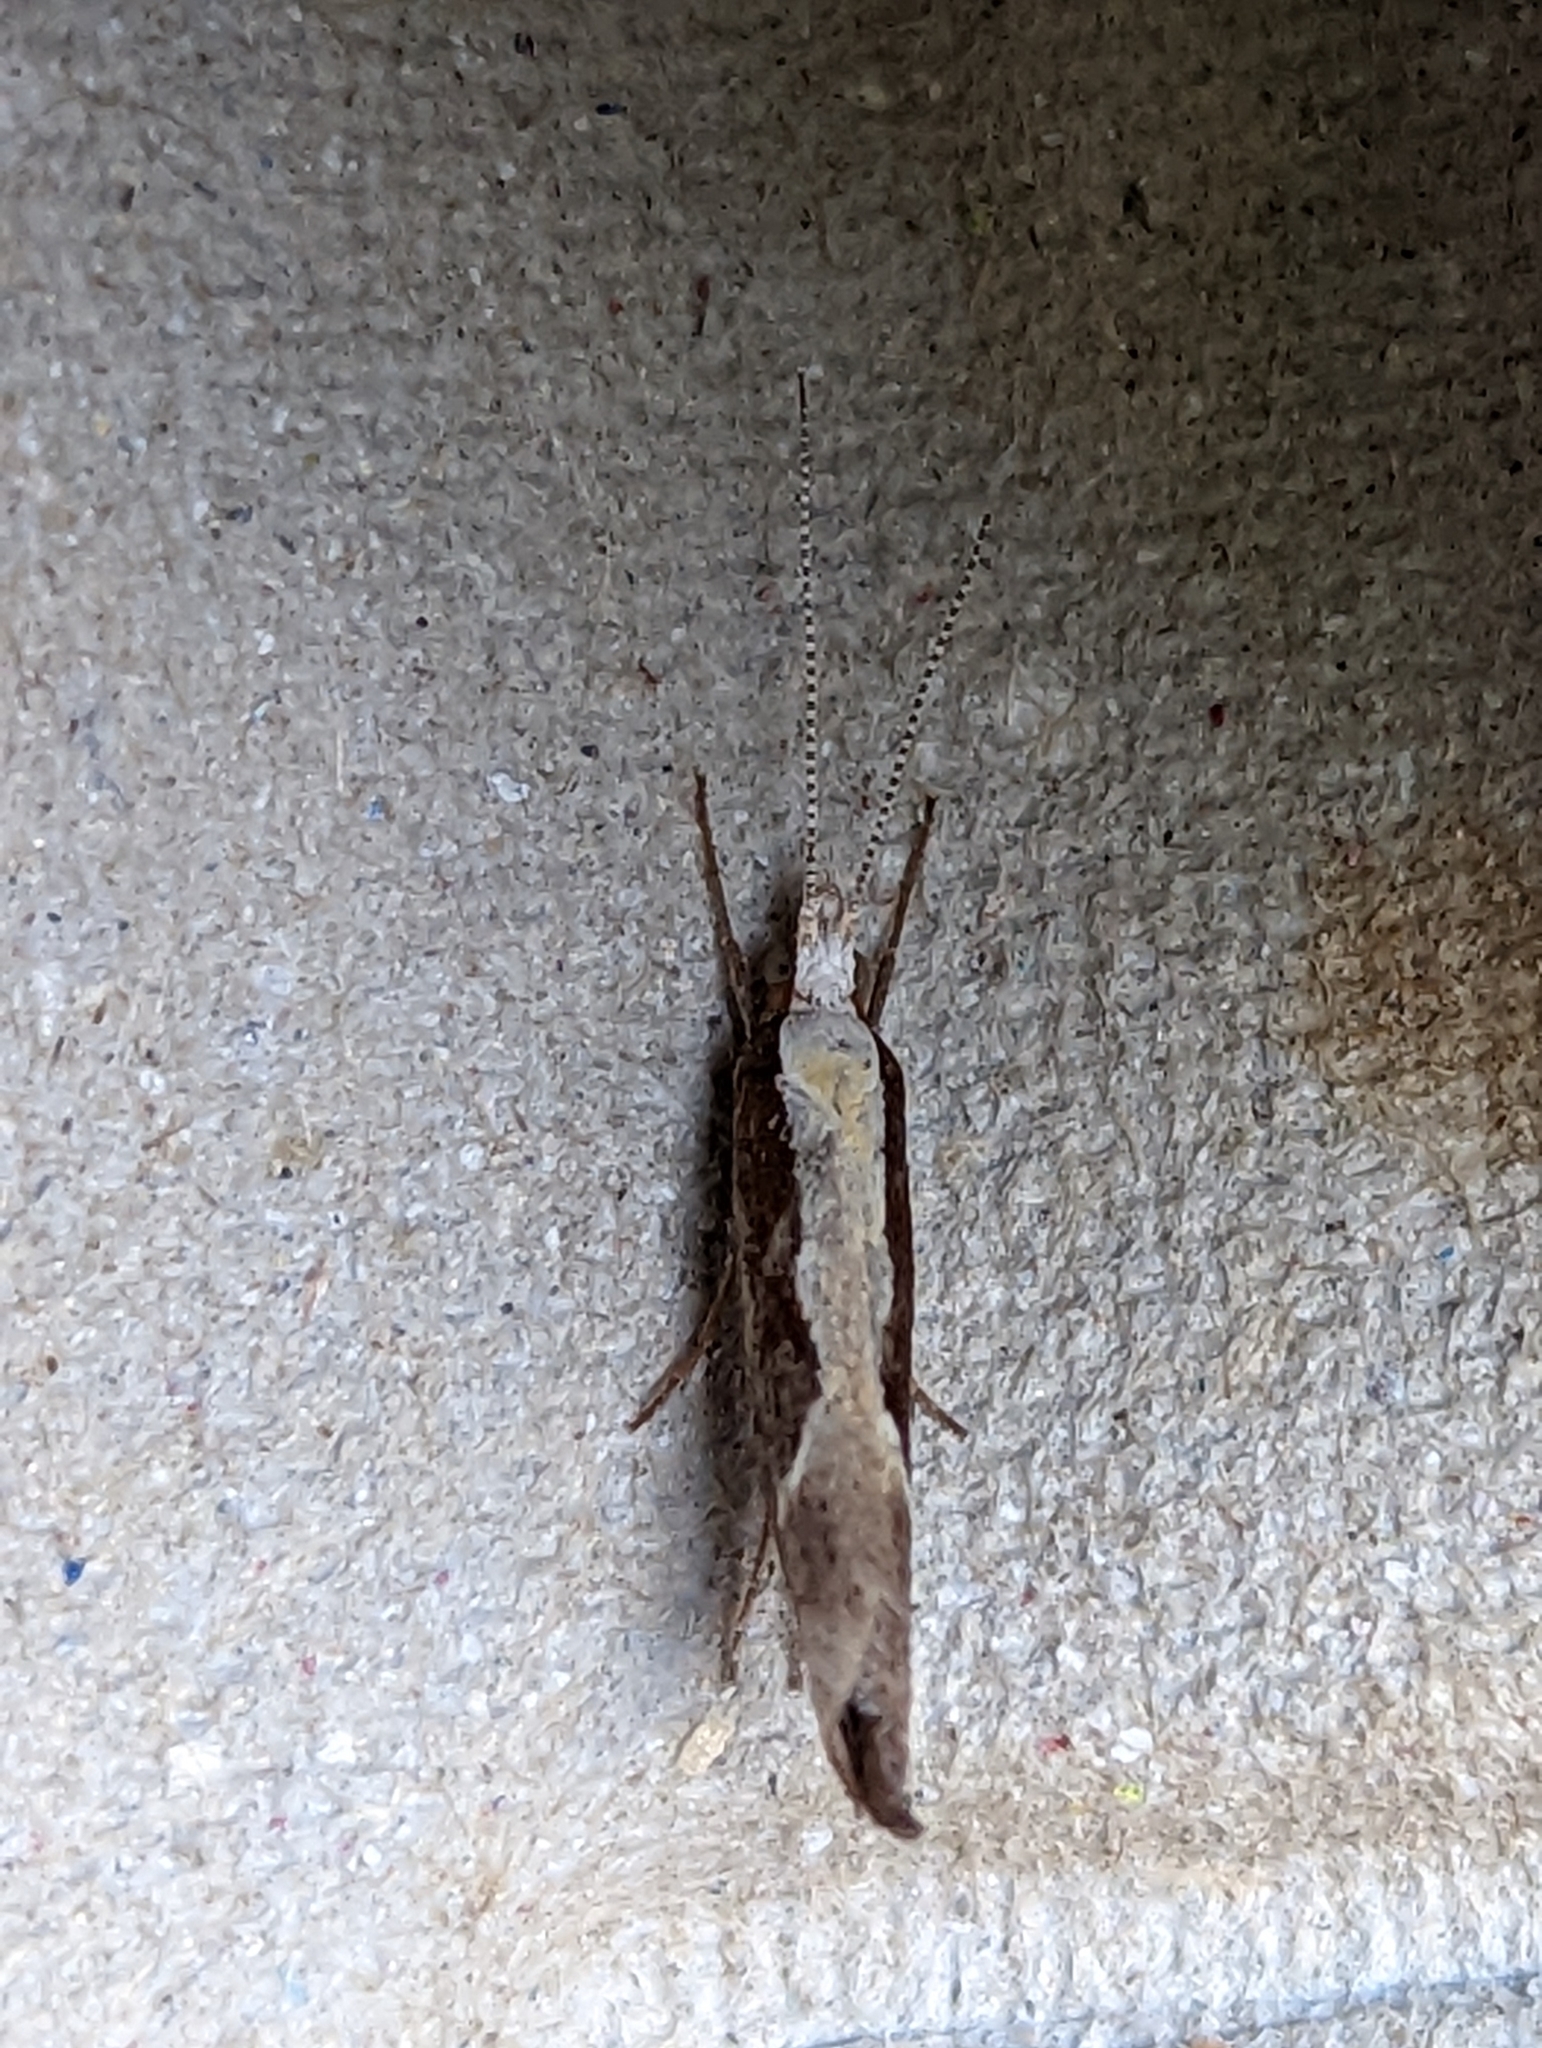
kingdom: Animalia
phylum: Arthropoda
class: Insecta
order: Lepidoptera
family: Ypsolophidae
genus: Ypsolopha
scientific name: Ypsolopha dentella
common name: Honeysuckle moth
